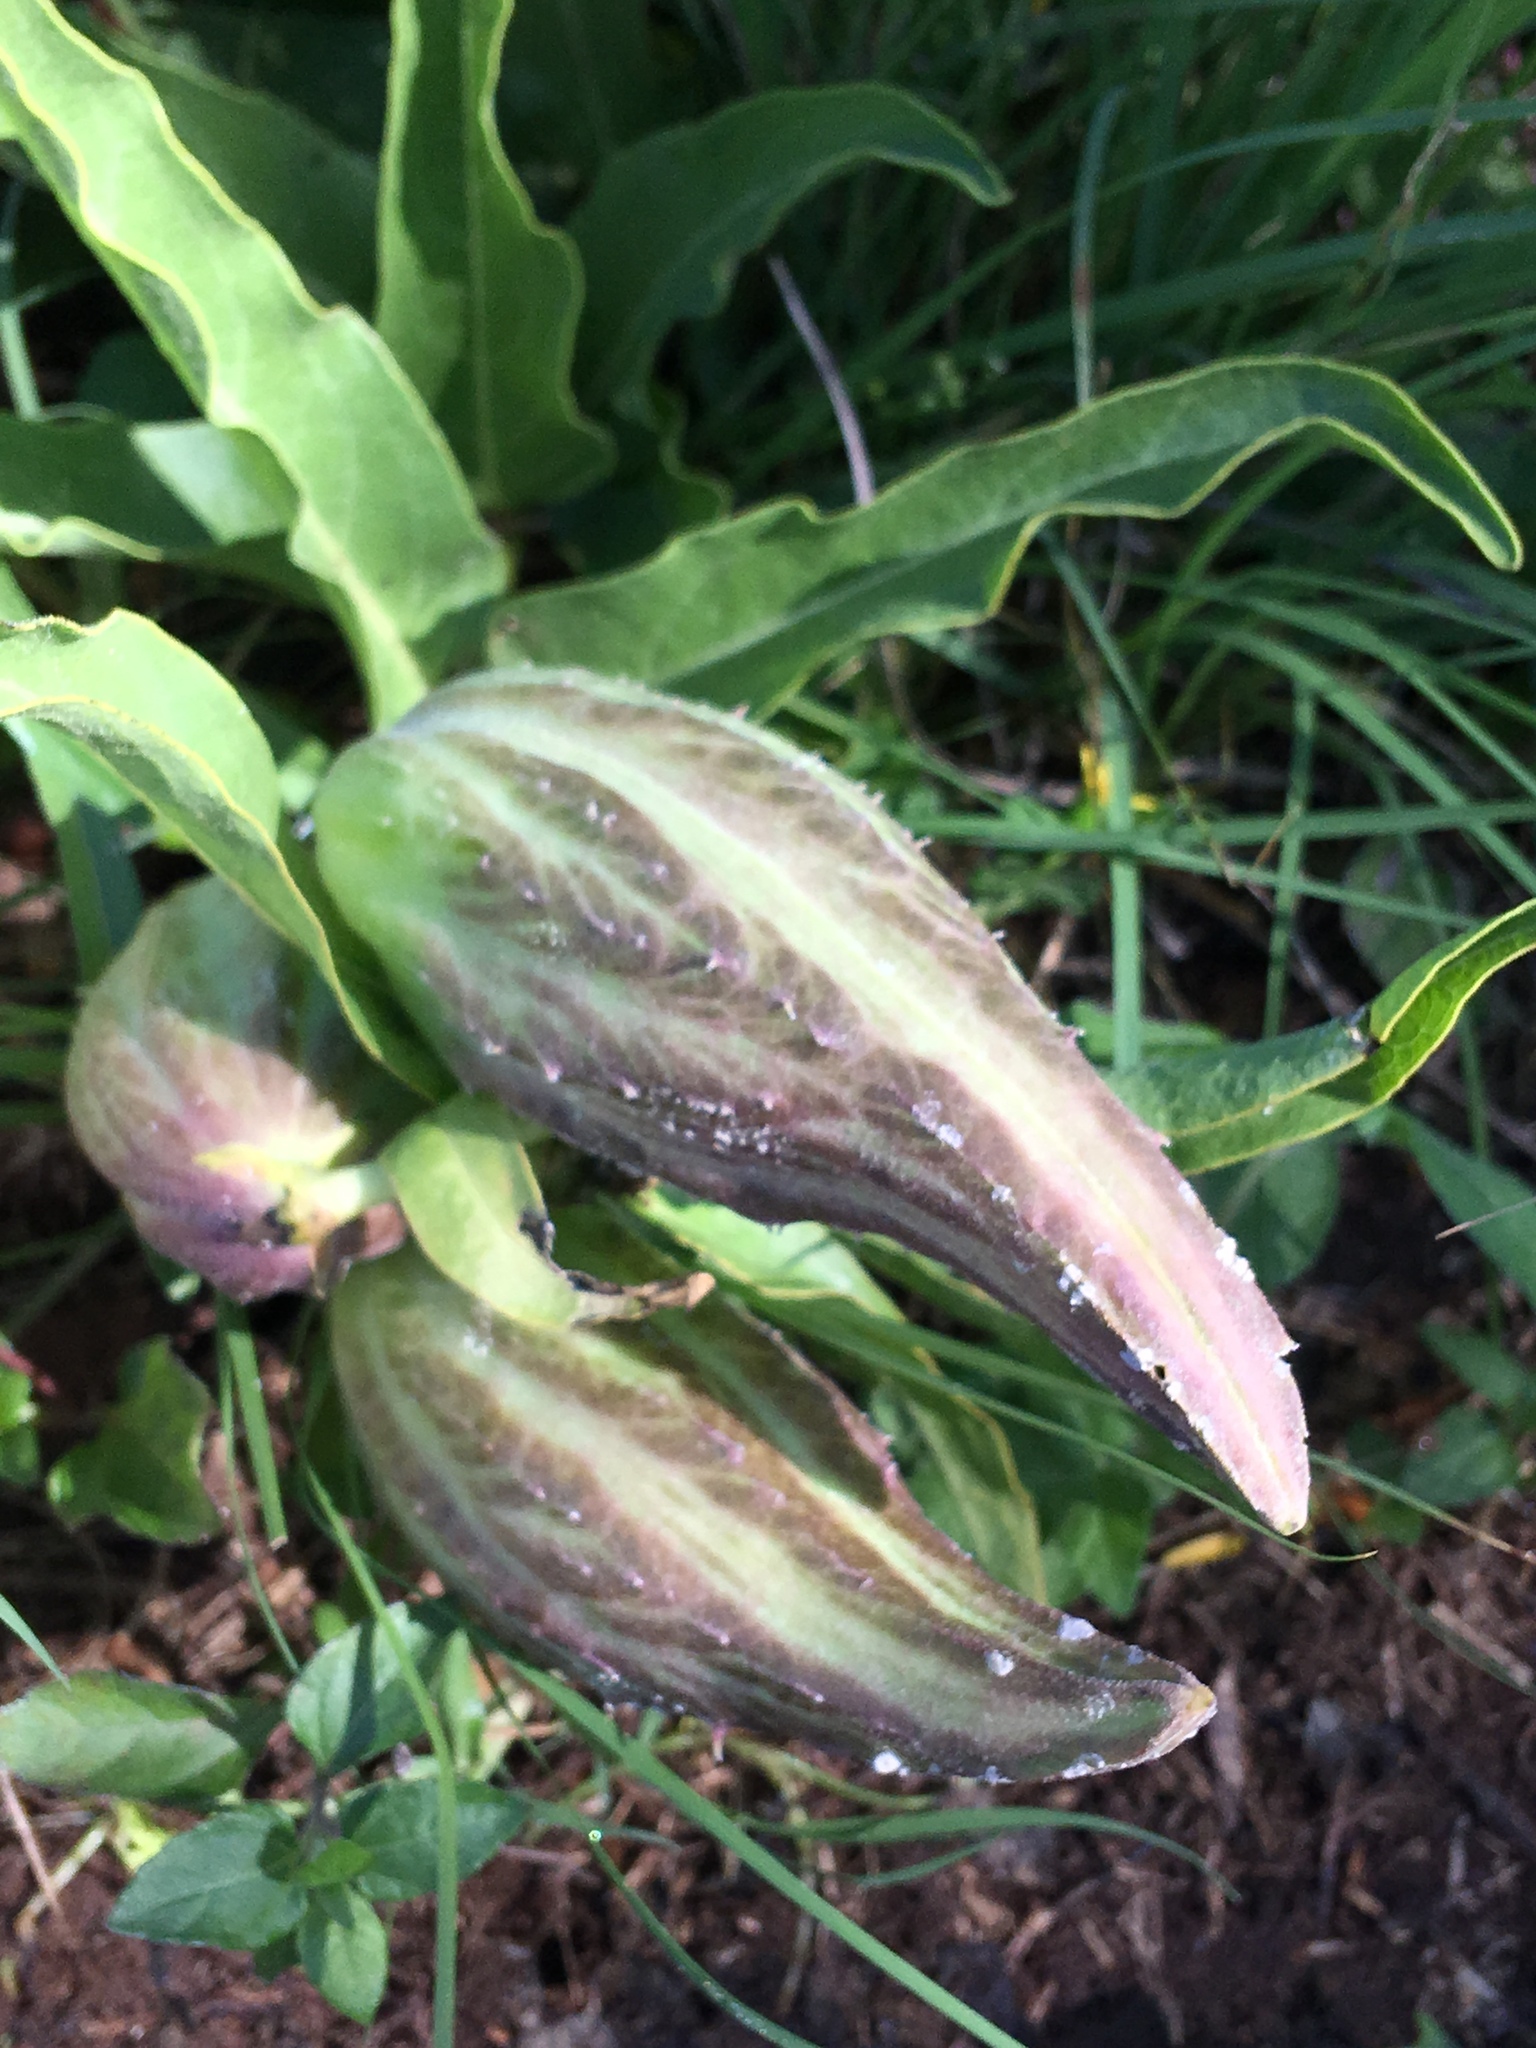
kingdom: Plantae
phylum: Tracheophyta
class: Magnoliopsida
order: Gentianales
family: Apocynaceae
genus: Asclepias
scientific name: Asclepias asperula
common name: Antelope horns
